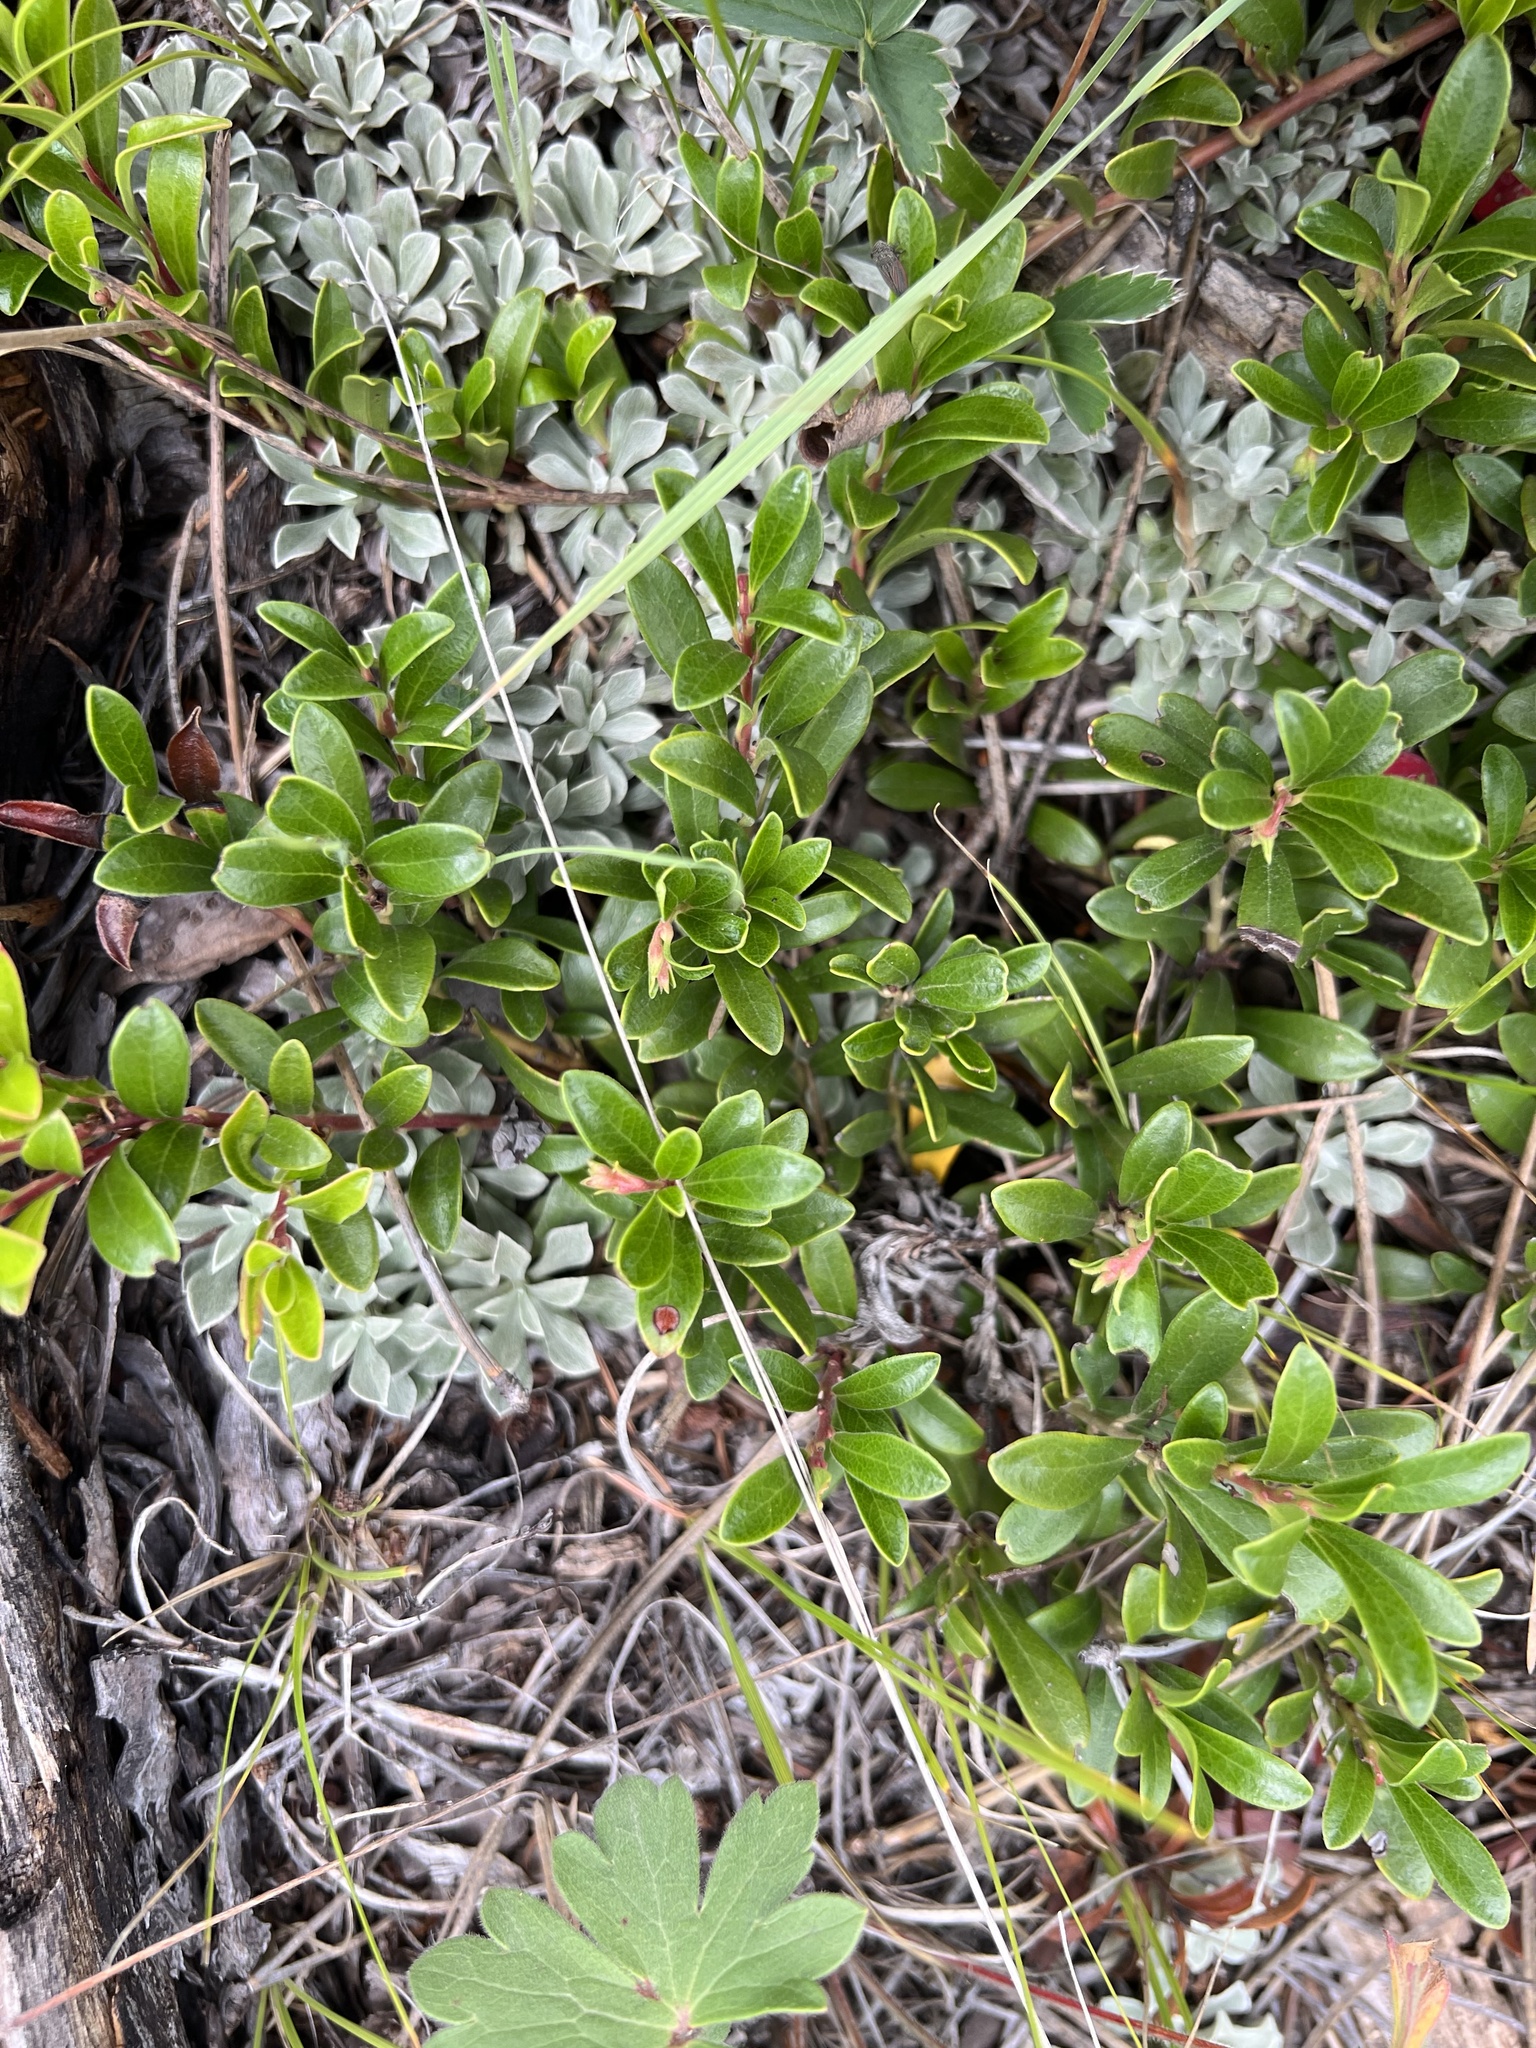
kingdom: Plantae
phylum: Tracheophyta
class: Magnoliopsida
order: Ericales
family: Ericaceae
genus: Arctostaphylos
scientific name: Arctostaphylos uva-ursi
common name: Bearberry
